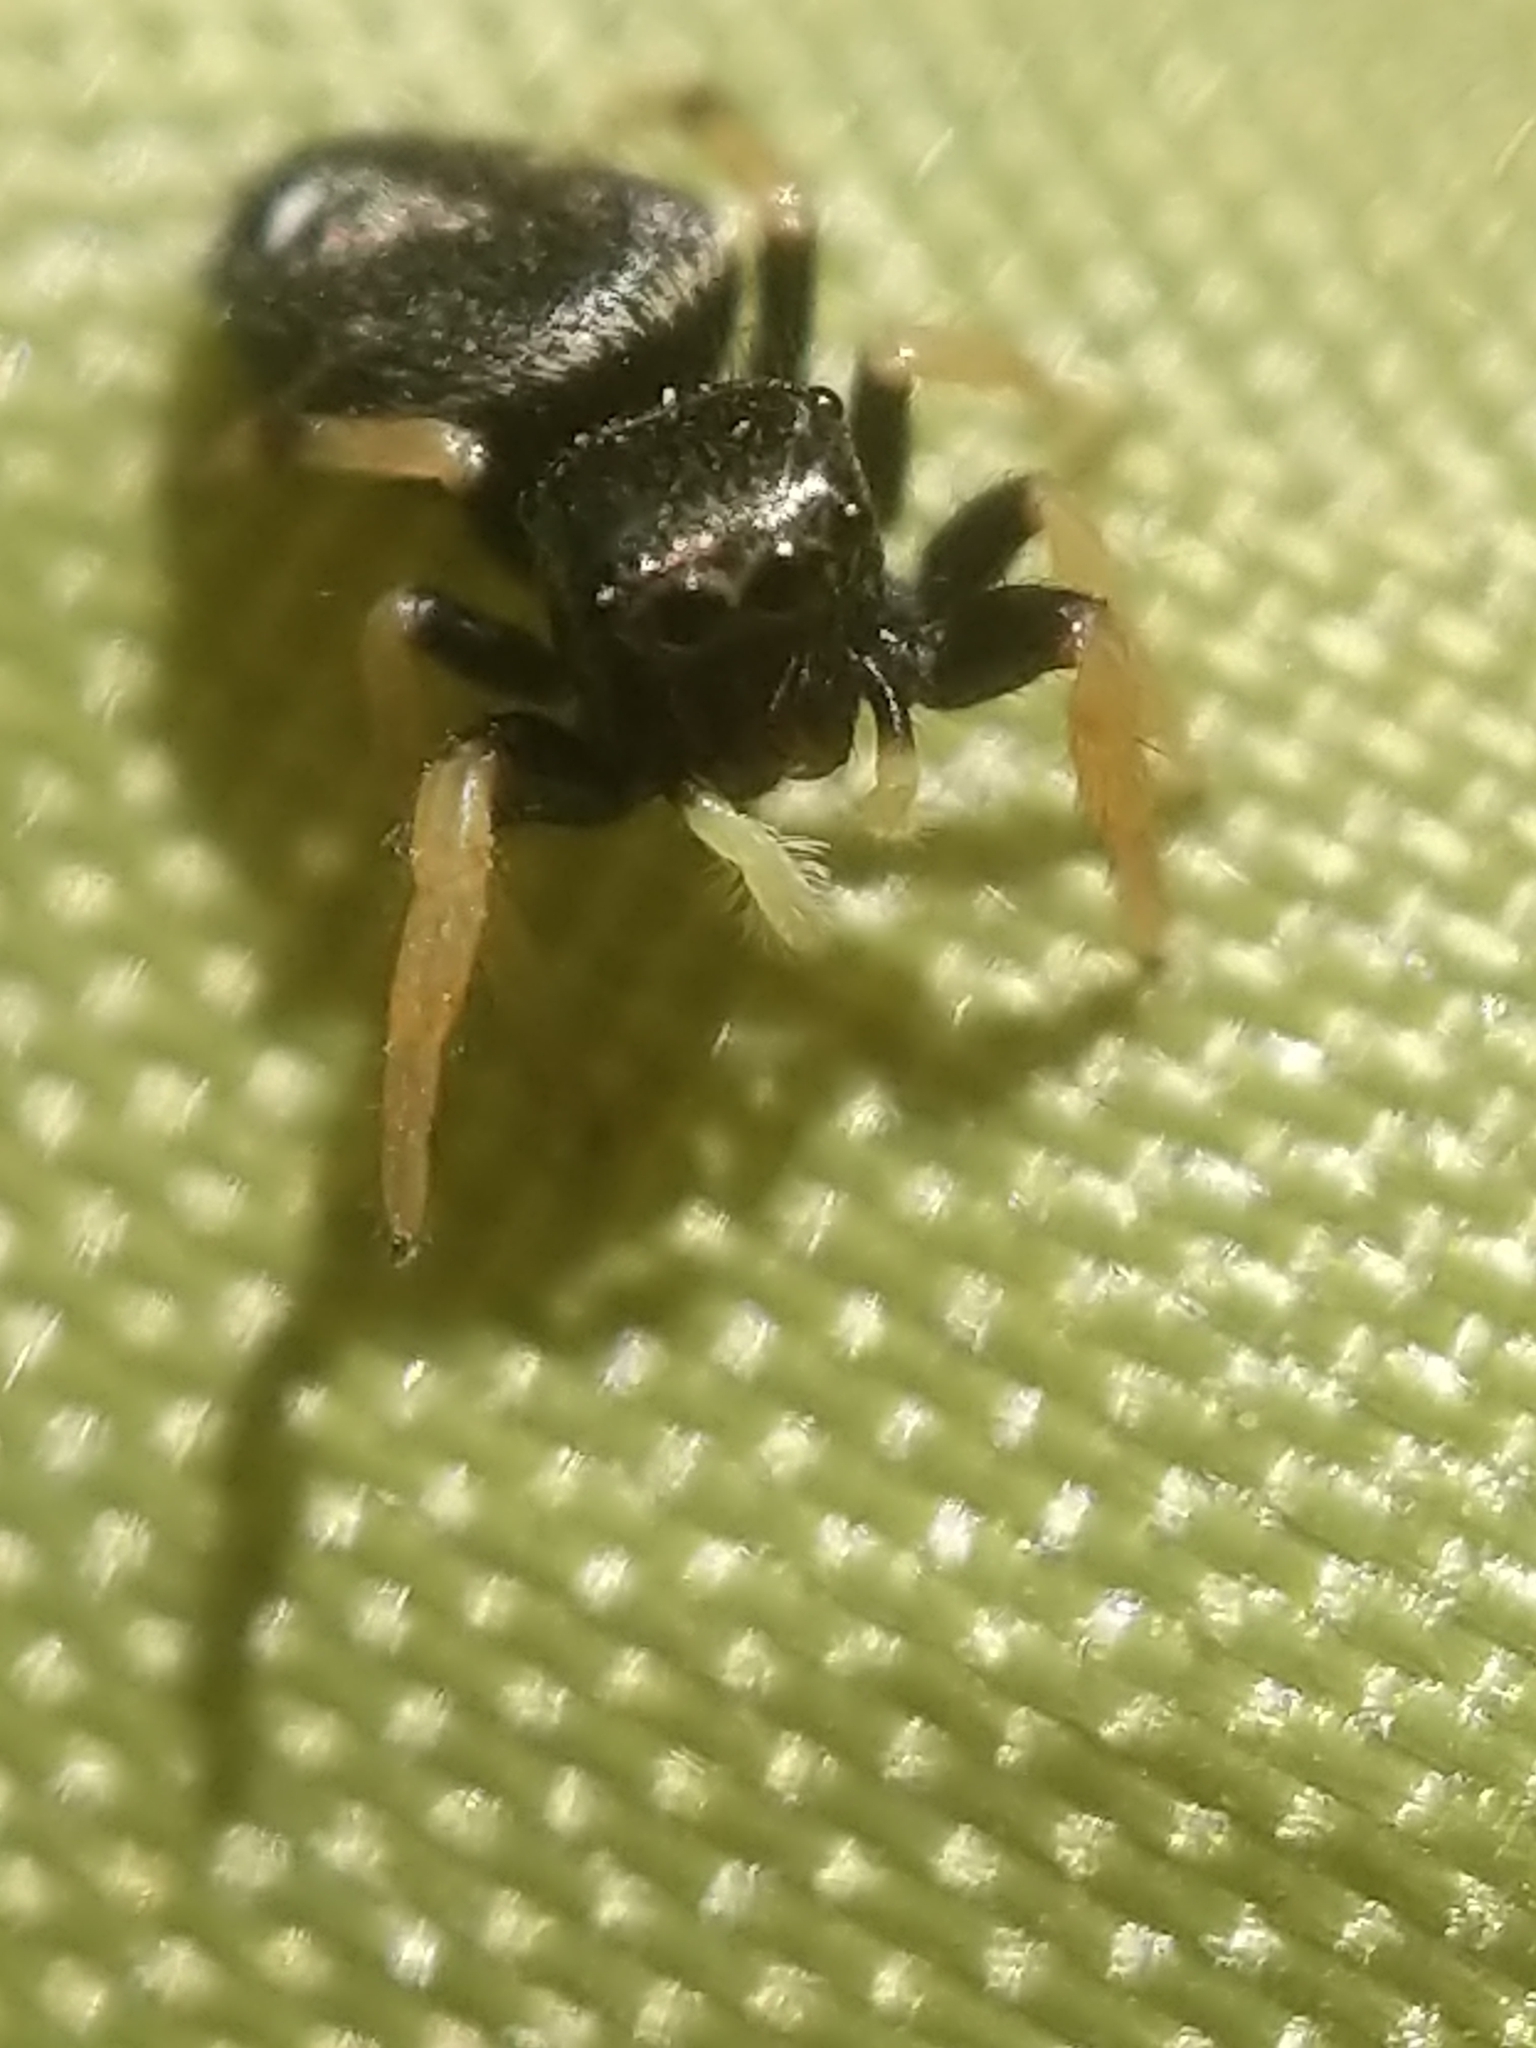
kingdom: Animalia
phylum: Arthropoda
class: Arachnida
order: Araneae
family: Salticidae
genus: Phidippus
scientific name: Phidippus whitmani
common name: Whitman's jumping spider
